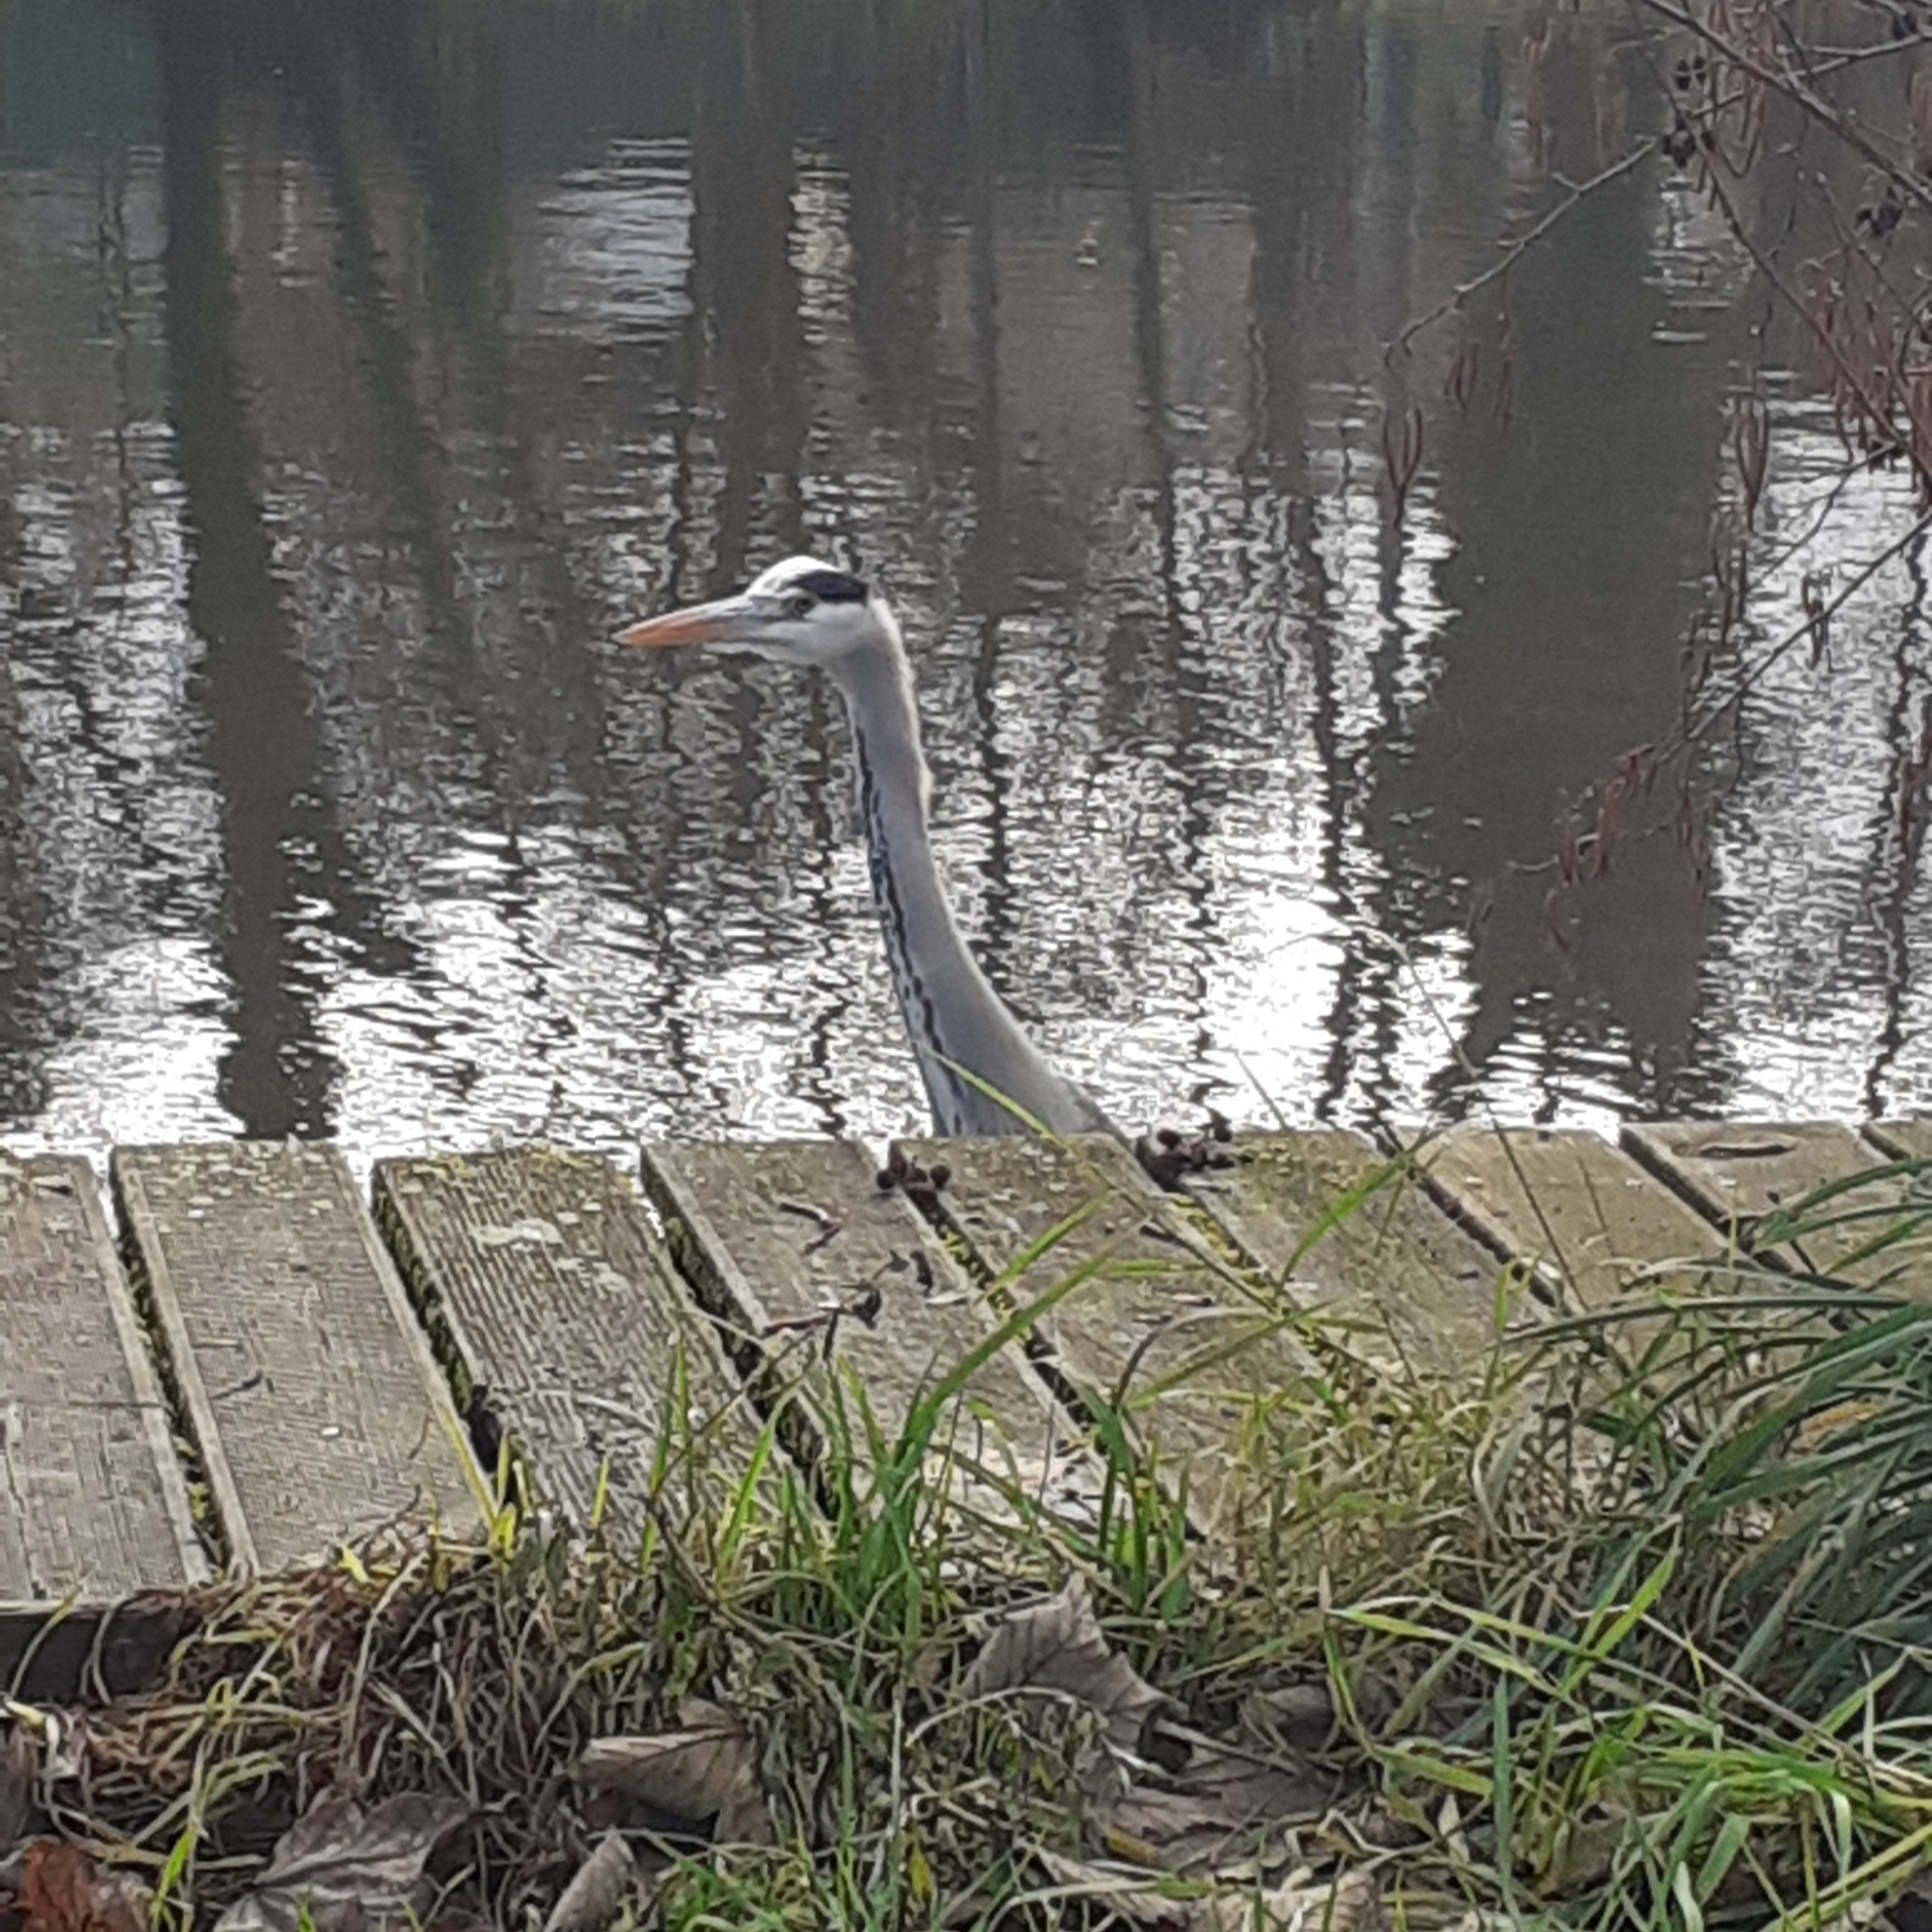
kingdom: Animalia
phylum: Chordata
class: Aves
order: Pelecaniformes
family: Ardeidae
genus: Ardea
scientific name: Ardea cinerea
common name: Grey heron
